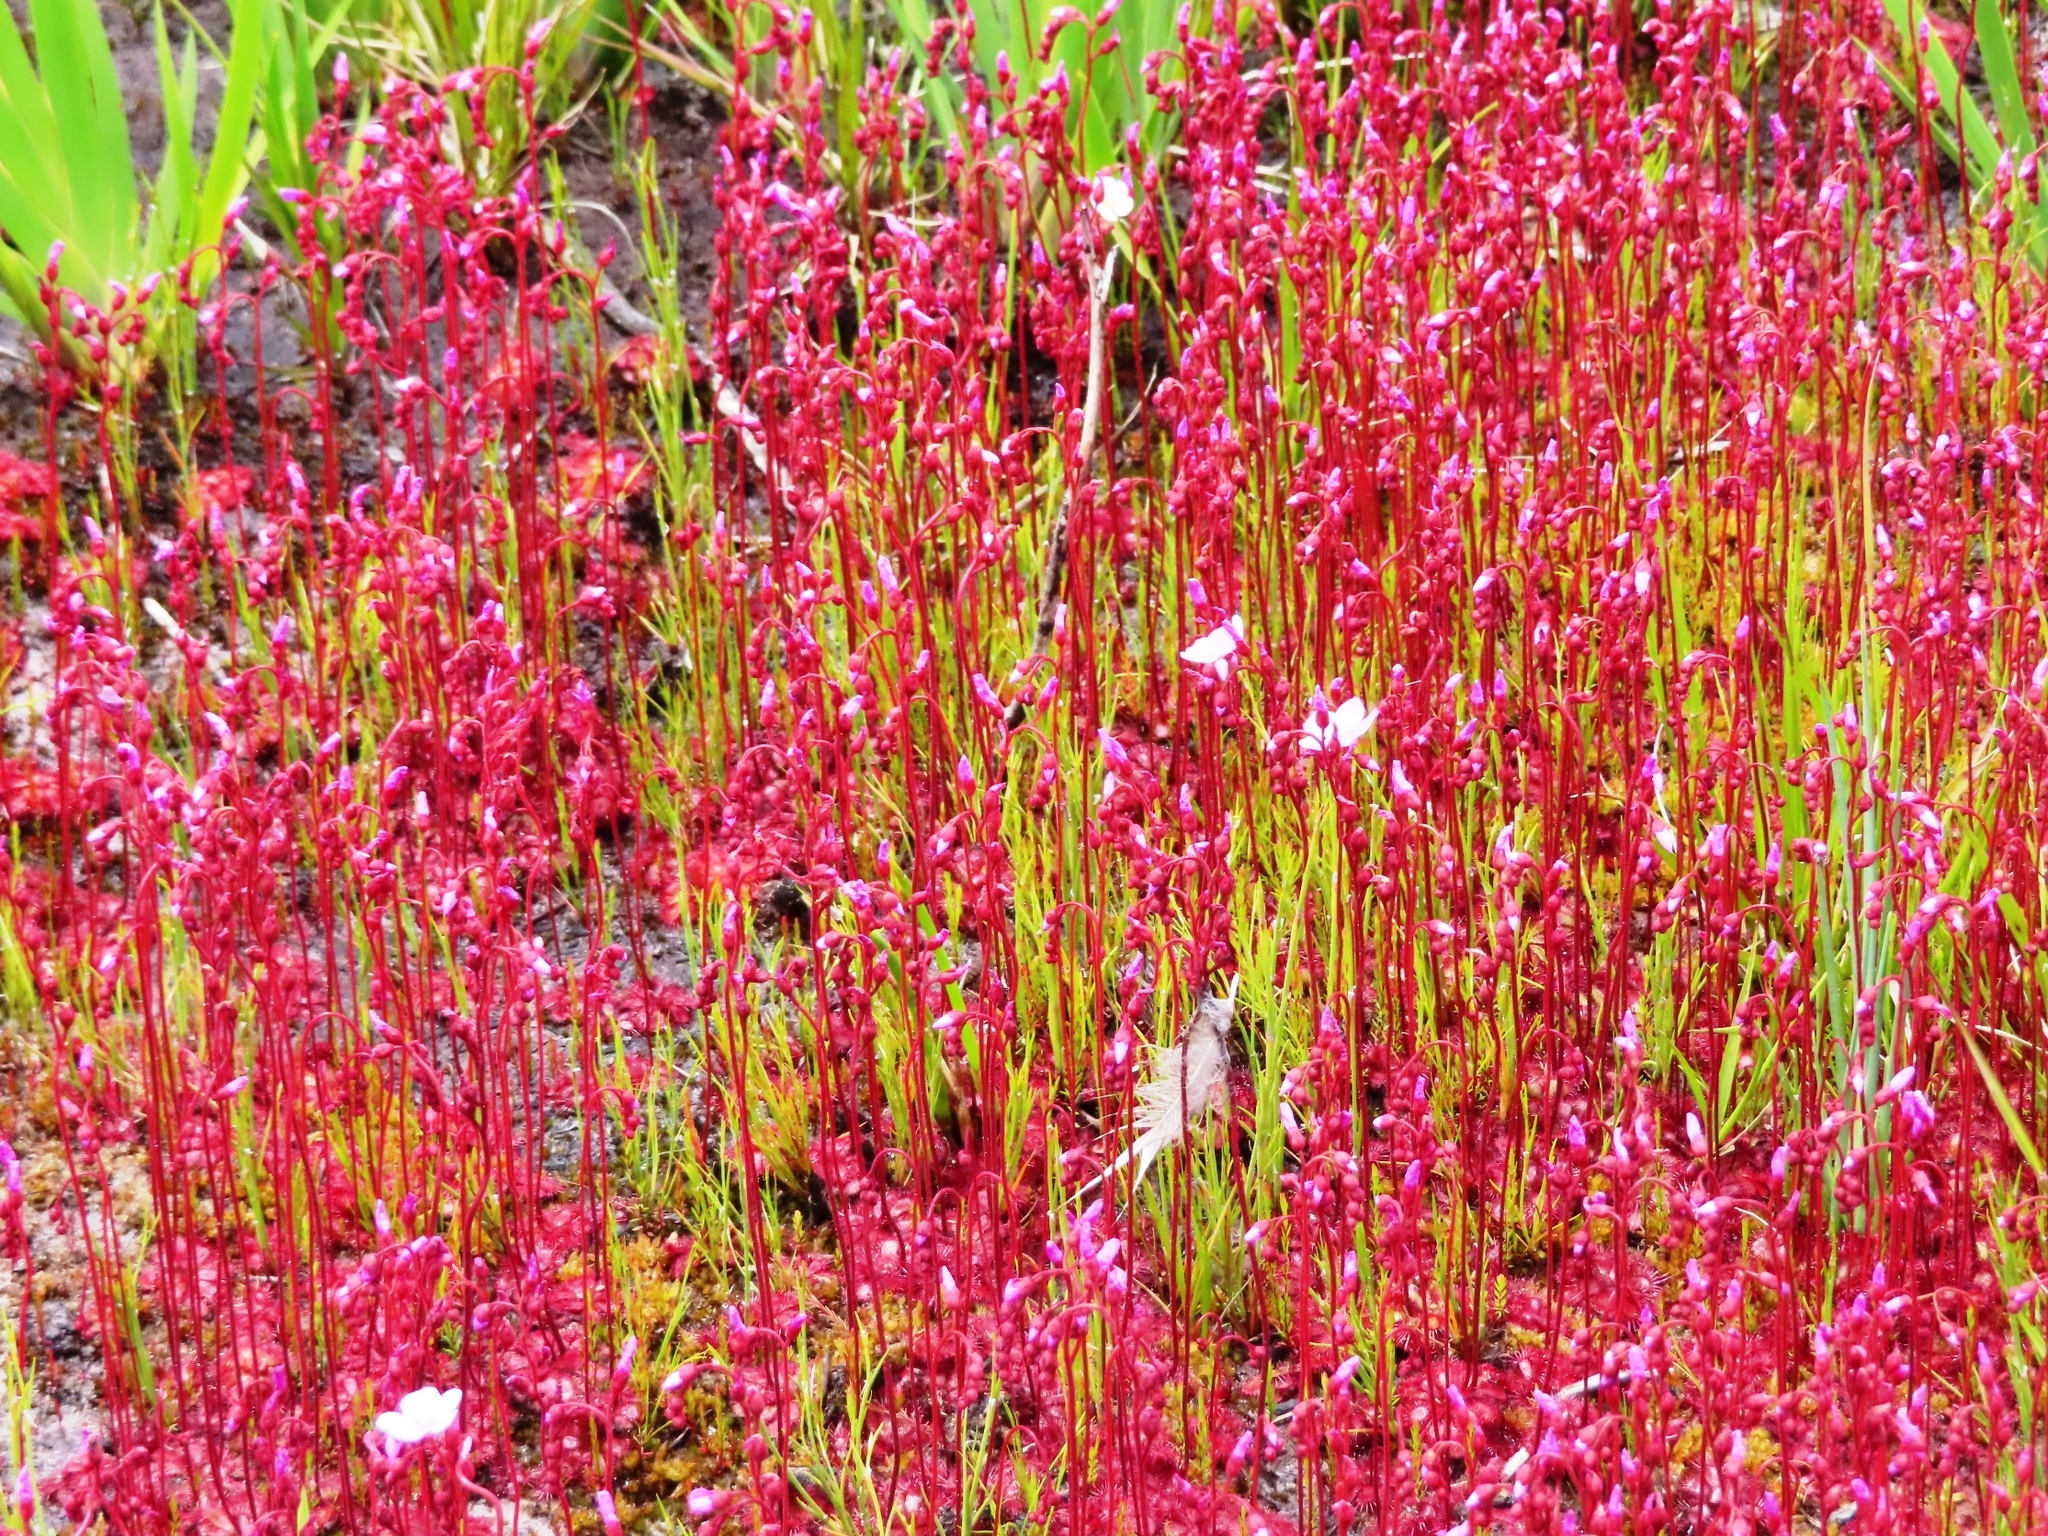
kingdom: Plantae
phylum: Tracheophyta
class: Magnoliopsida
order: Caryophyllales
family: Droseraceae
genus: Drosera
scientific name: Drosera cuneifolia
